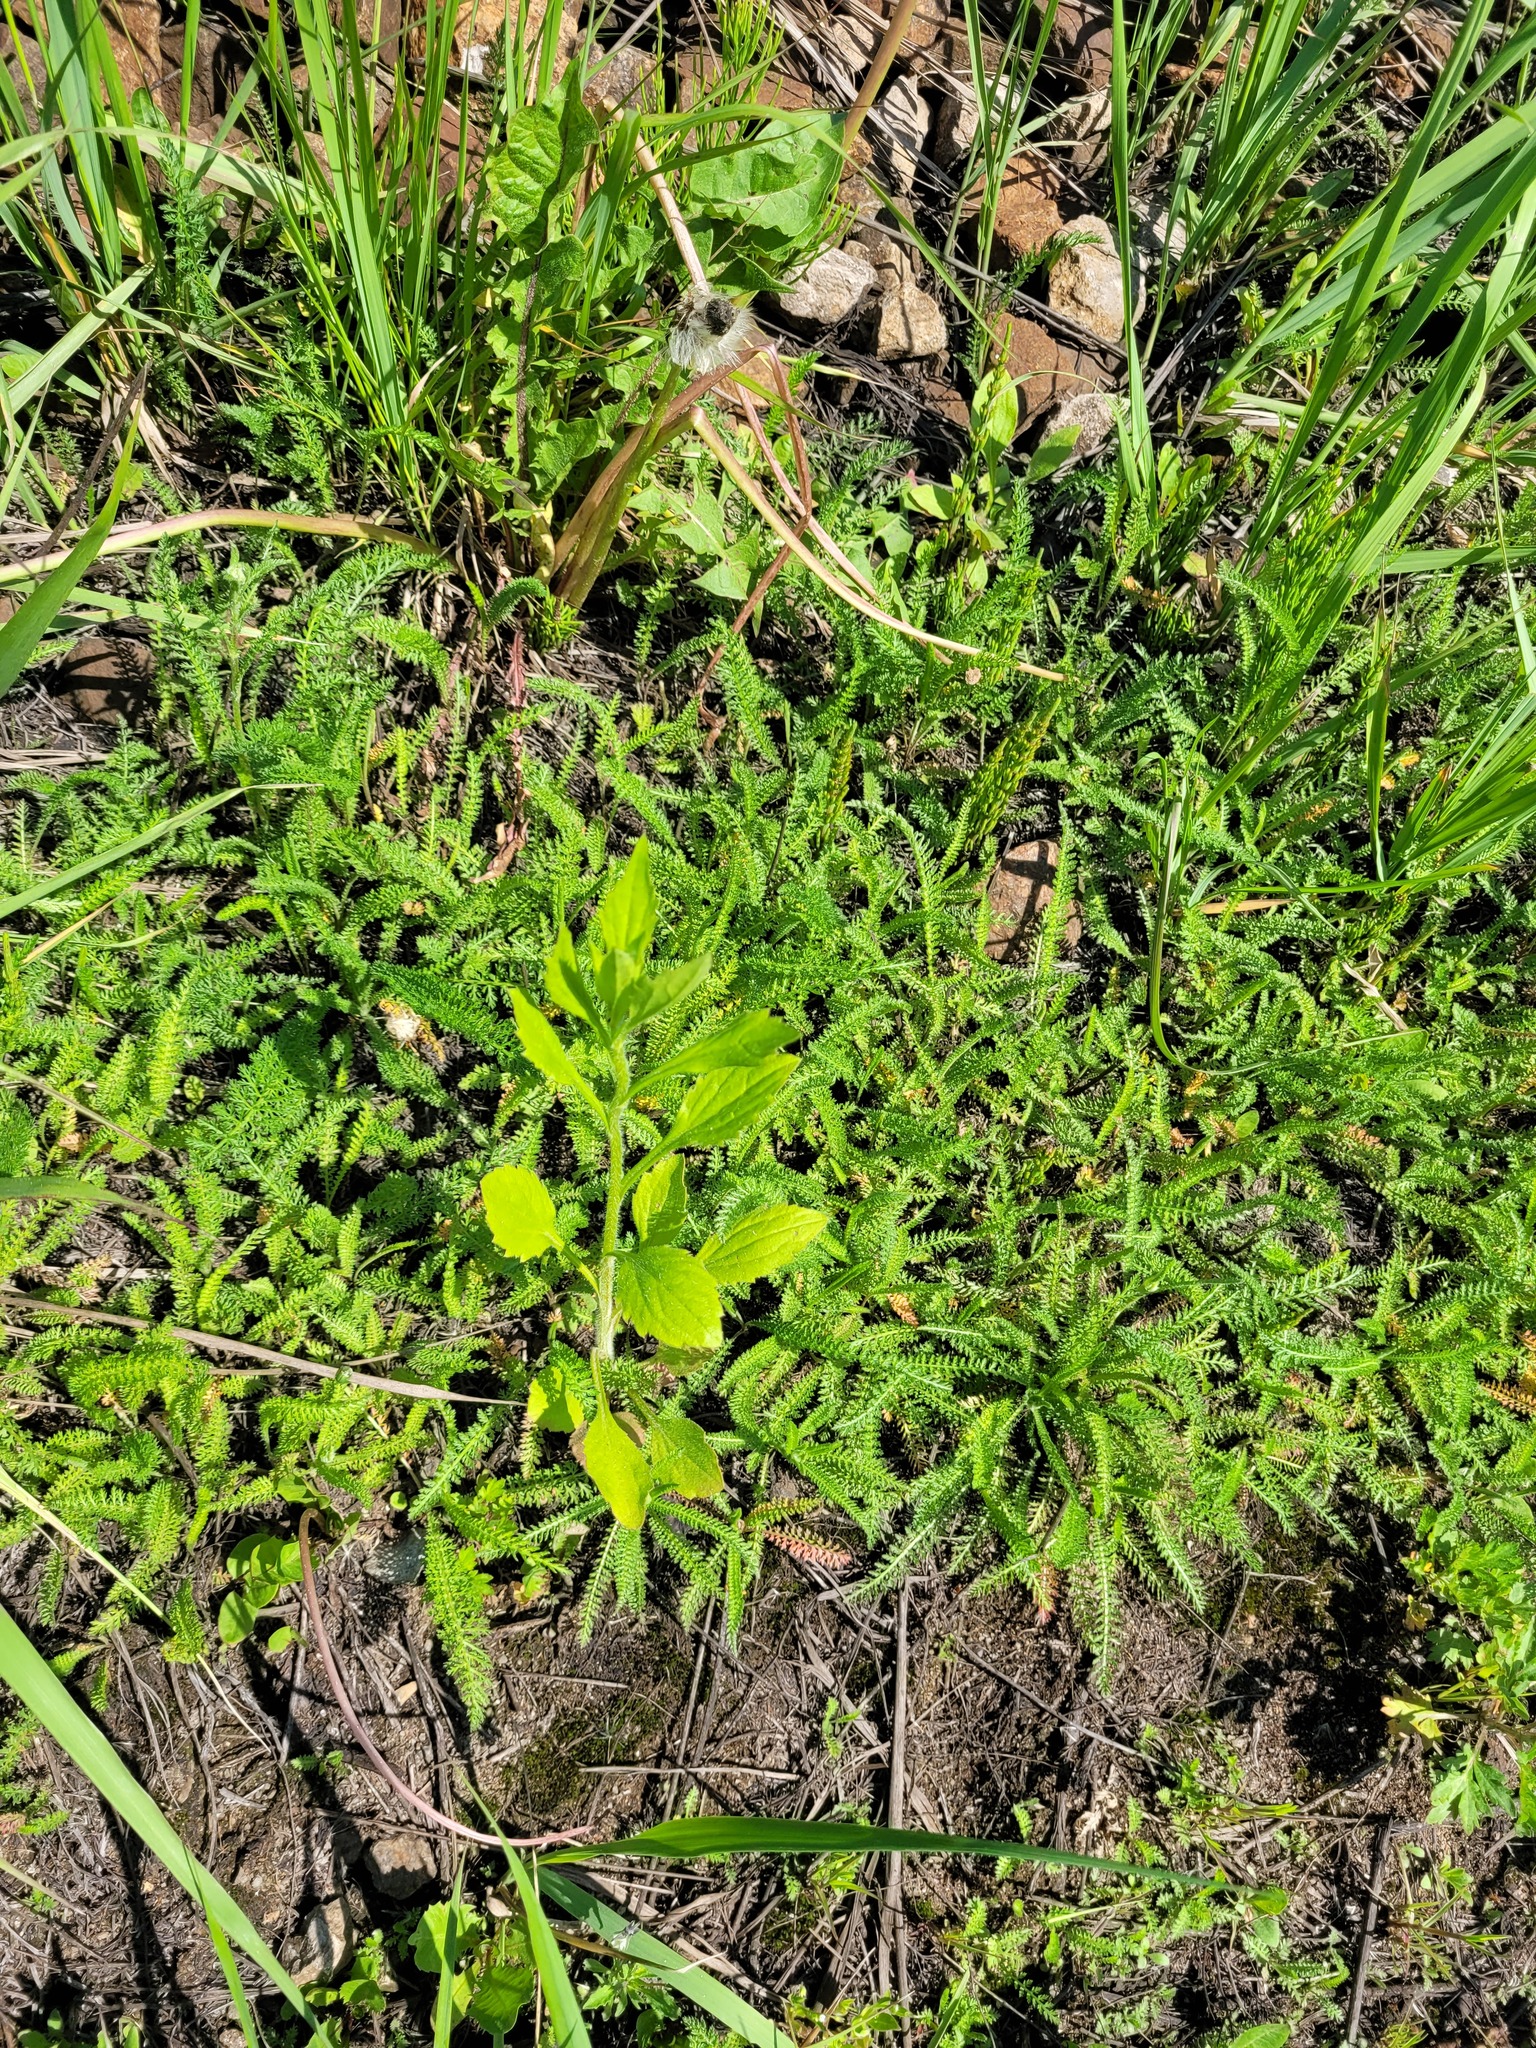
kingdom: Plantae
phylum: Tracheophyta
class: Magnoliopsida
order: Asterales
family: Asteraceae
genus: Erigeron
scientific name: Erigeron annuus
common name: Tall fleabane
